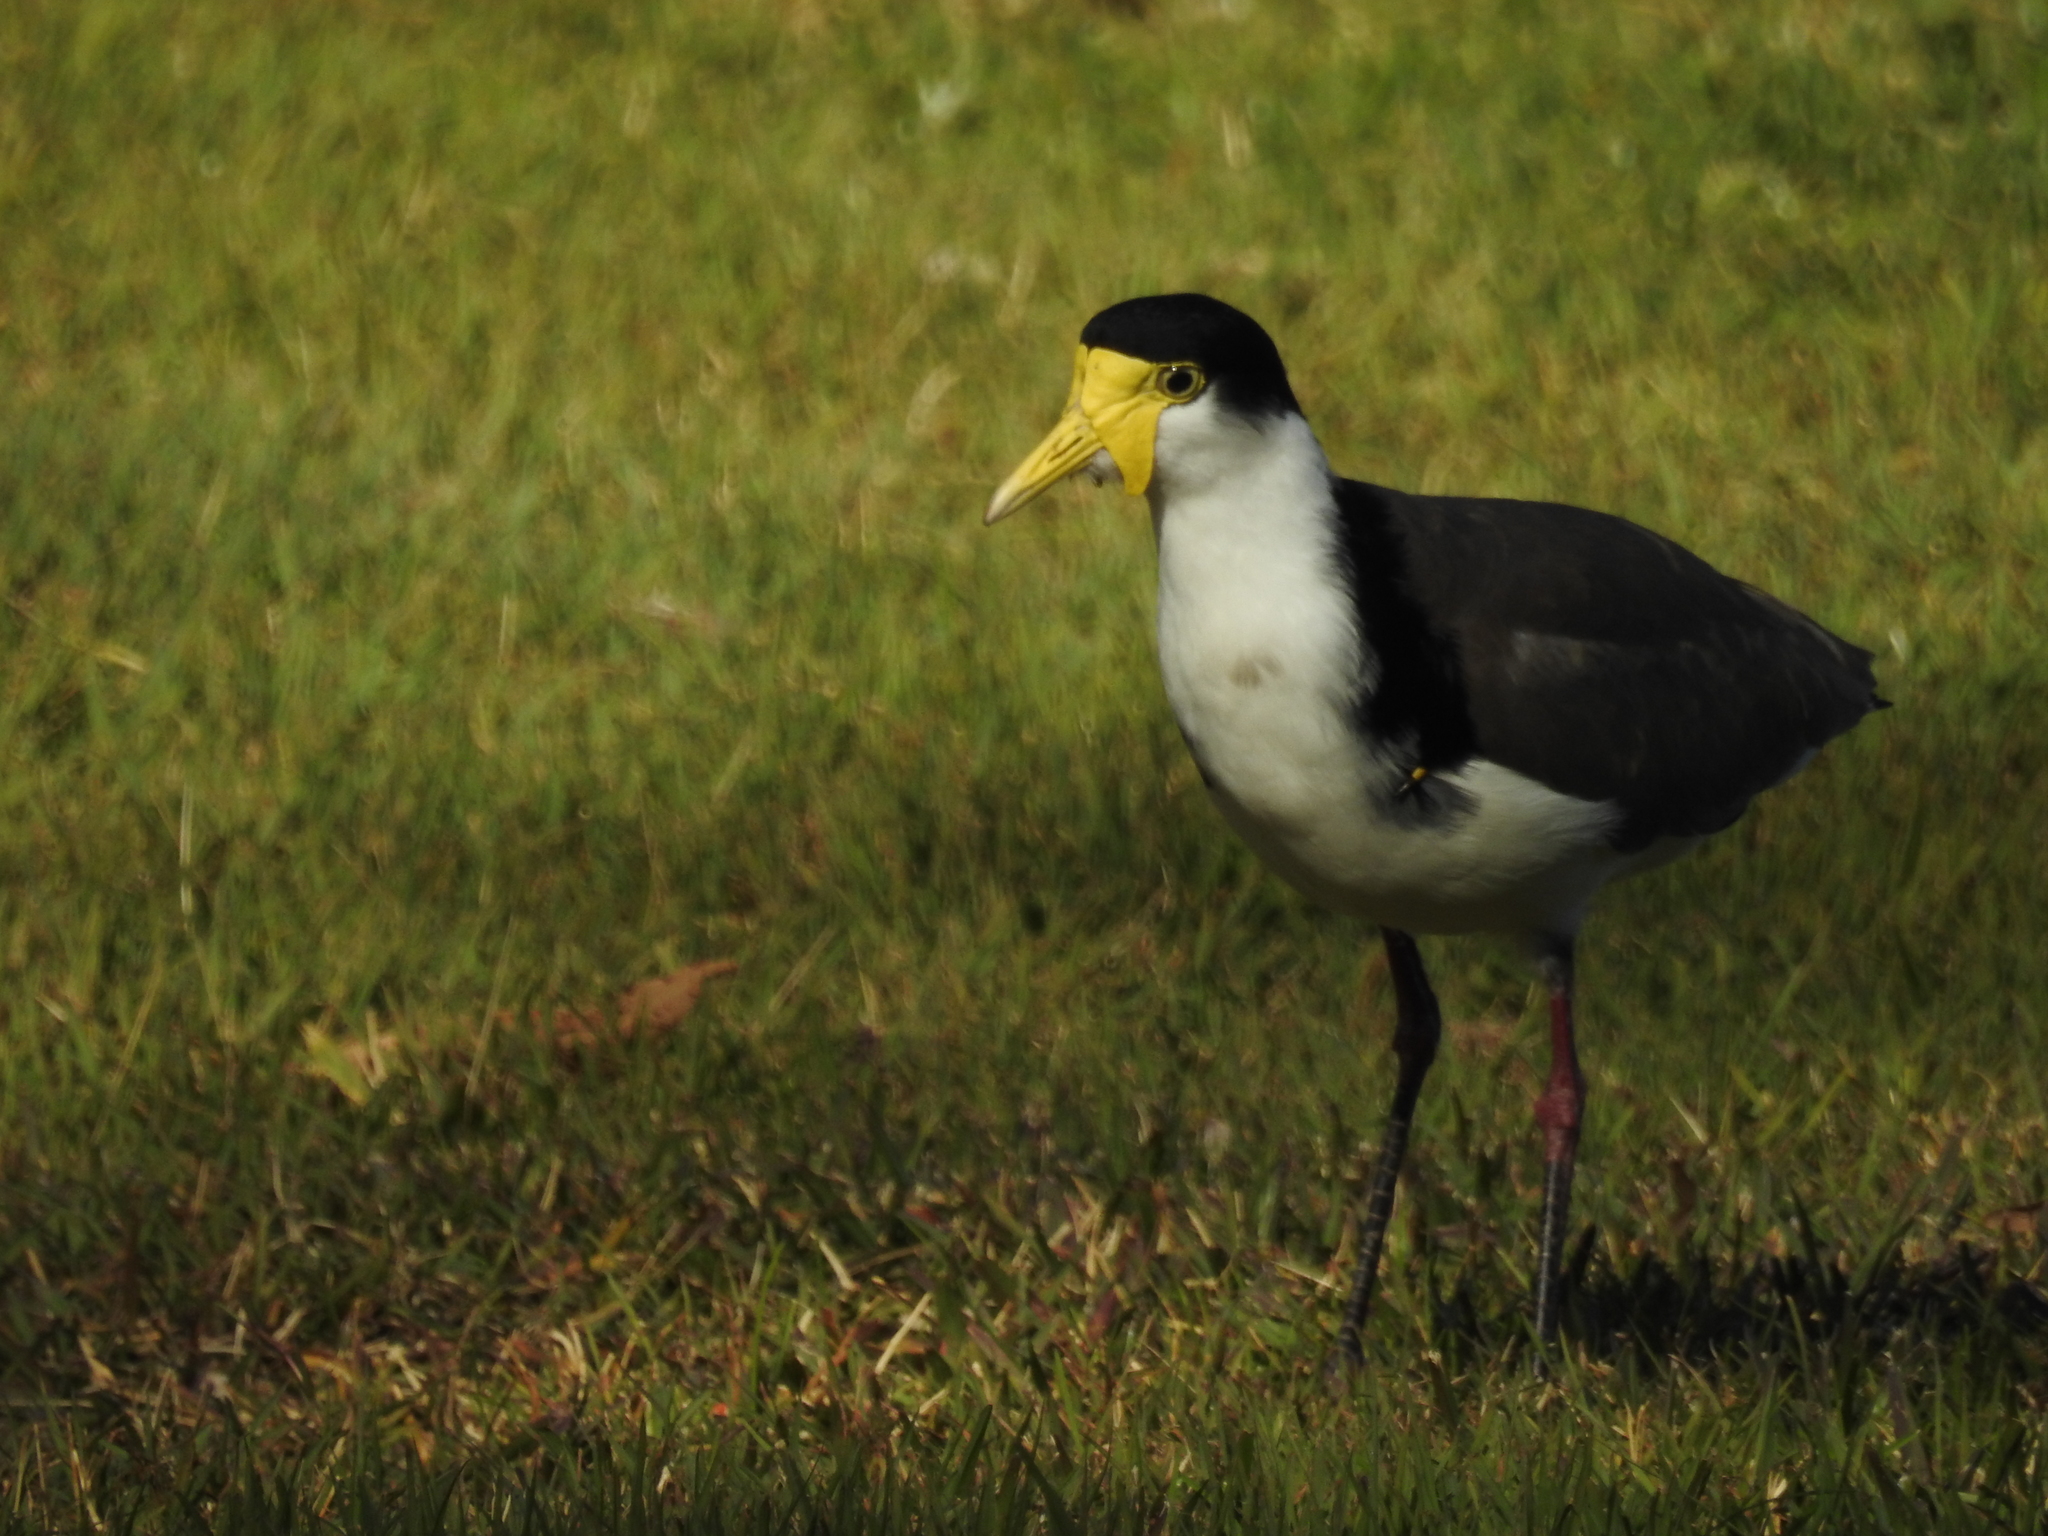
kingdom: Animalia
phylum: Chordata
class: Aves
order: Charadriiformes
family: Charadriidae
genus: Vanellus
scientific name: Vanellus miles
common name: Masked lapwing
